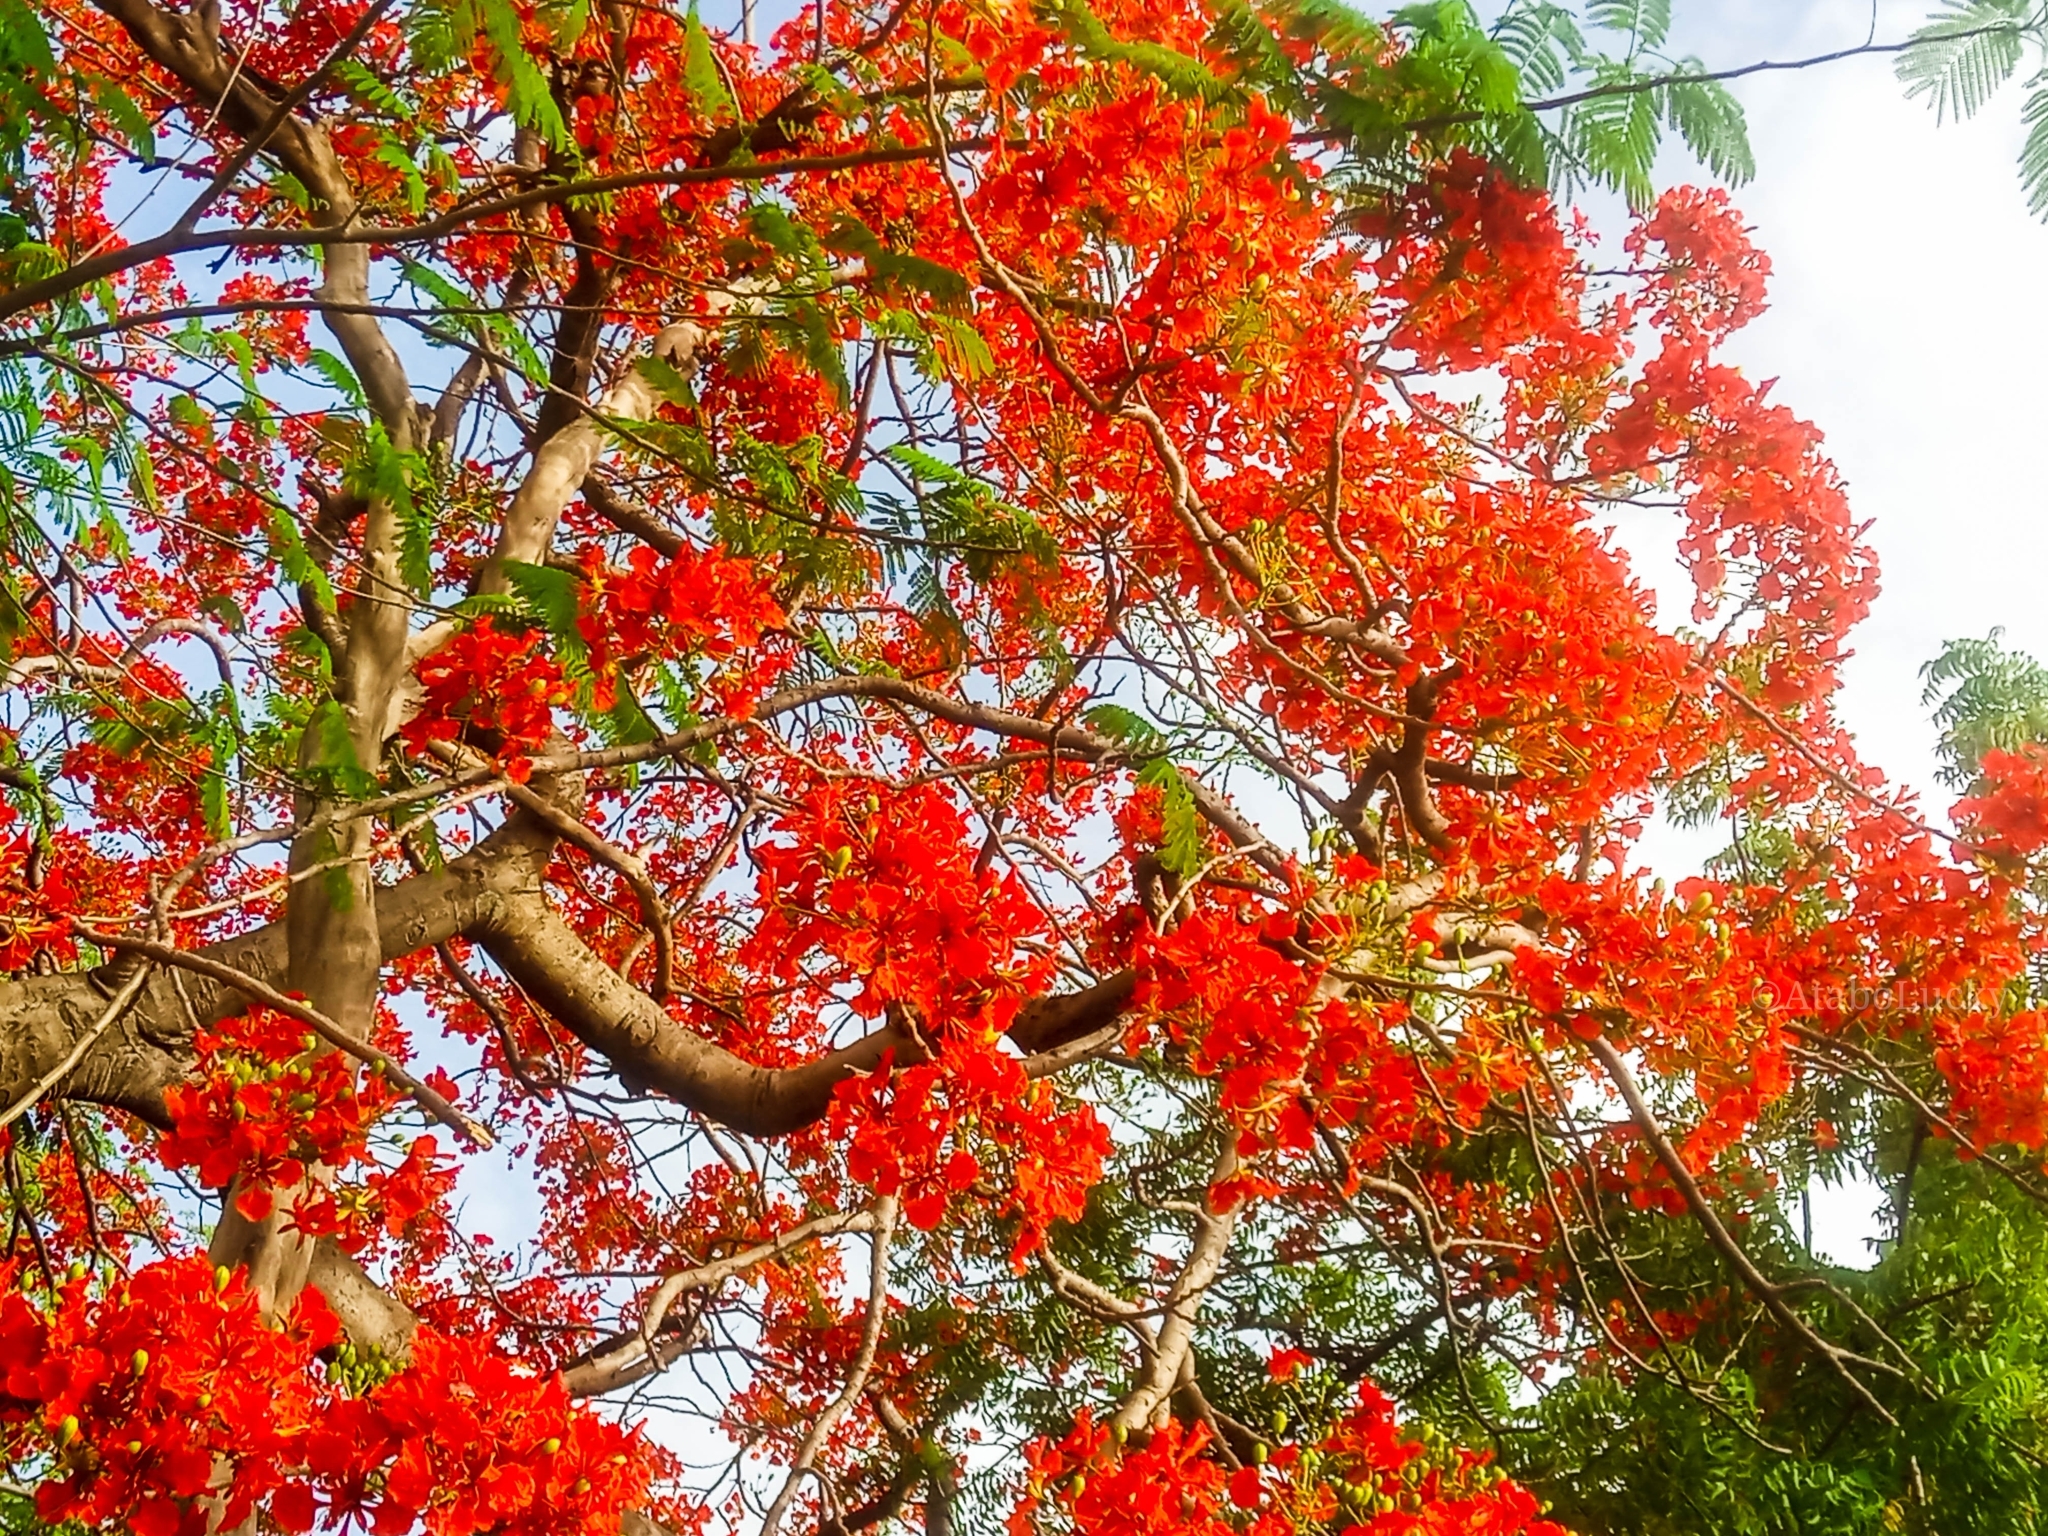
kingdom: Plantae
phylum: Tracheophyta
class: Magnoliopsida
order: Fabales
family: Fabaceae
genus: Delonix
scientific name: Delonix regia
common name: Royal poinciana
